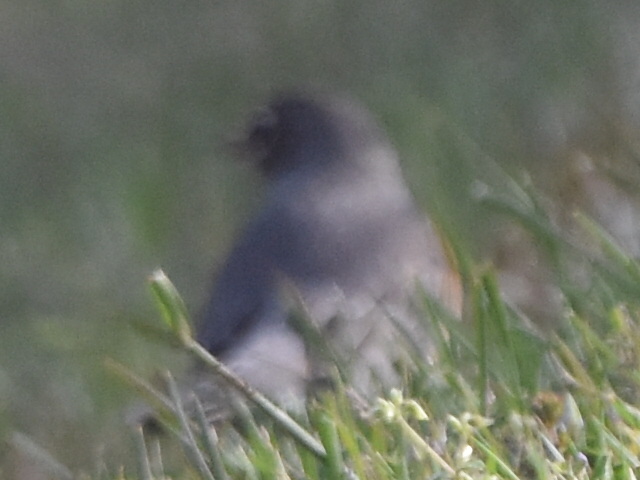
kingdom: Animalia
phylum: Chordata
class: Aves
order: Passeriformes
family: Turdidae
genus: Turdus
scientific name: Turdus migratorius
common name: American robin
